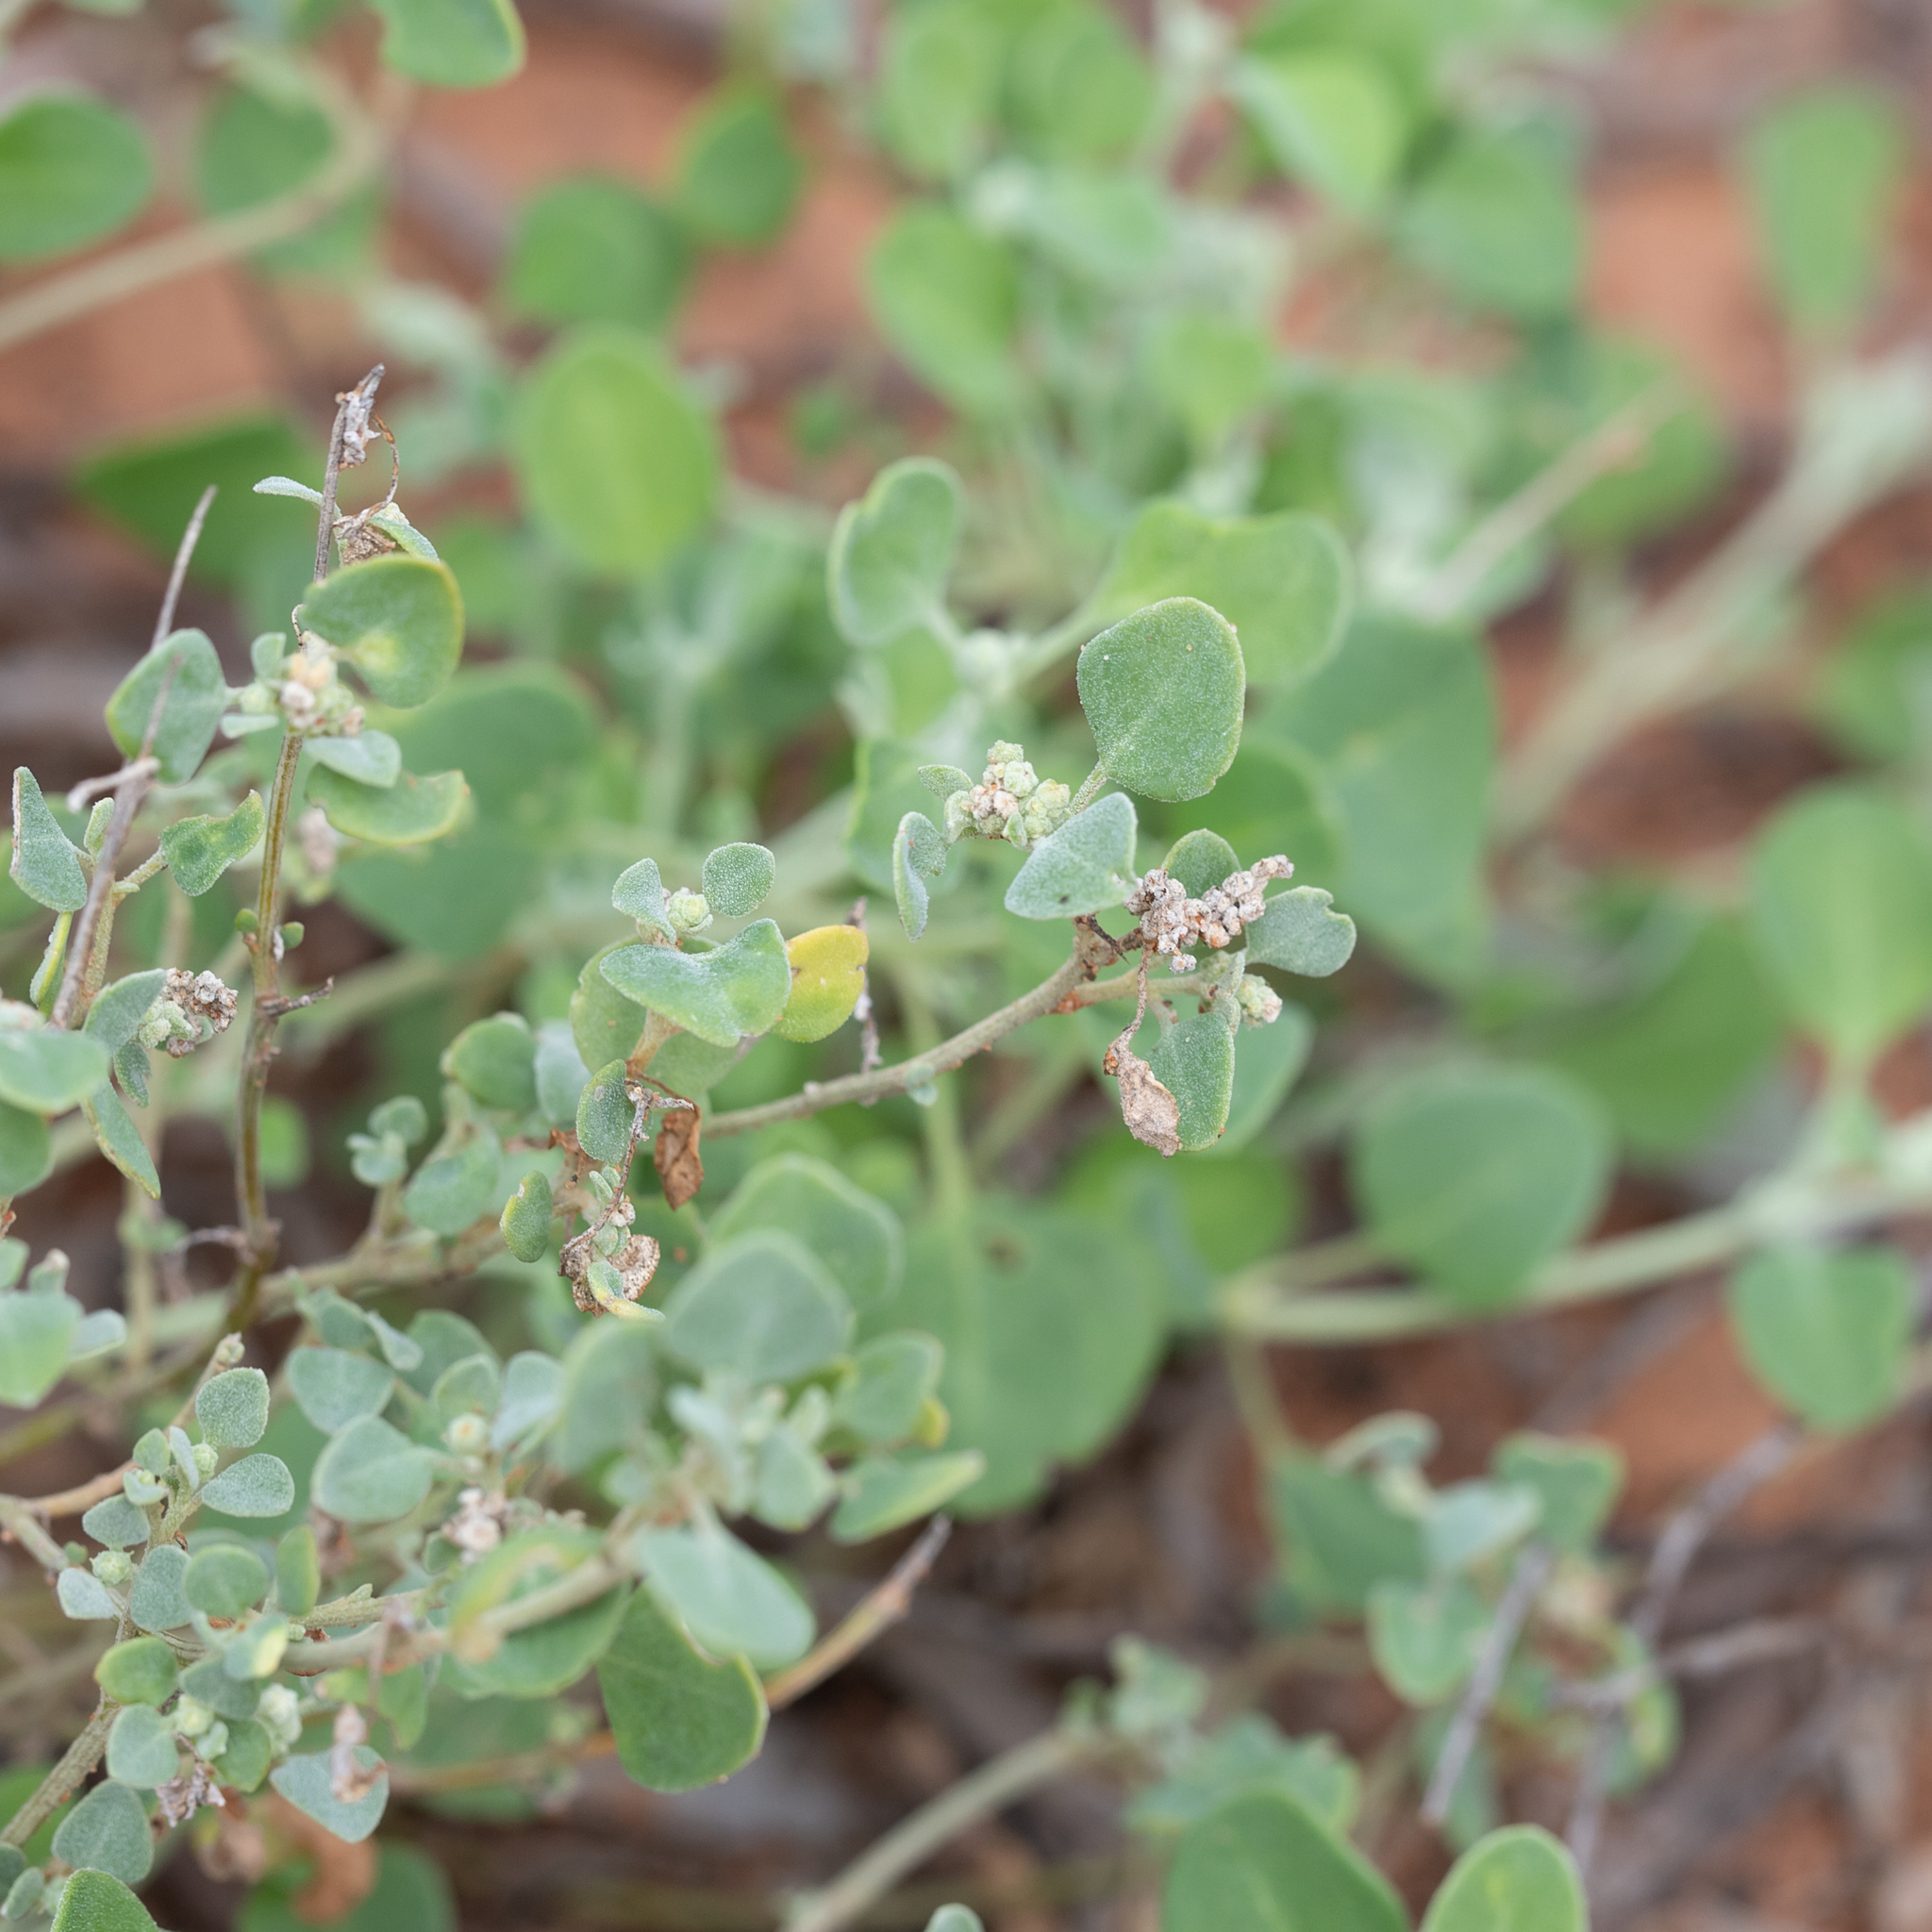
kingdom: Plantae
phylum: Tracheophyta
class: Magnoliopsida
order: Caryophyllales
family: Amaranthaceae
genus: Chenopodium
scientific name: Chenopodium desertorum
